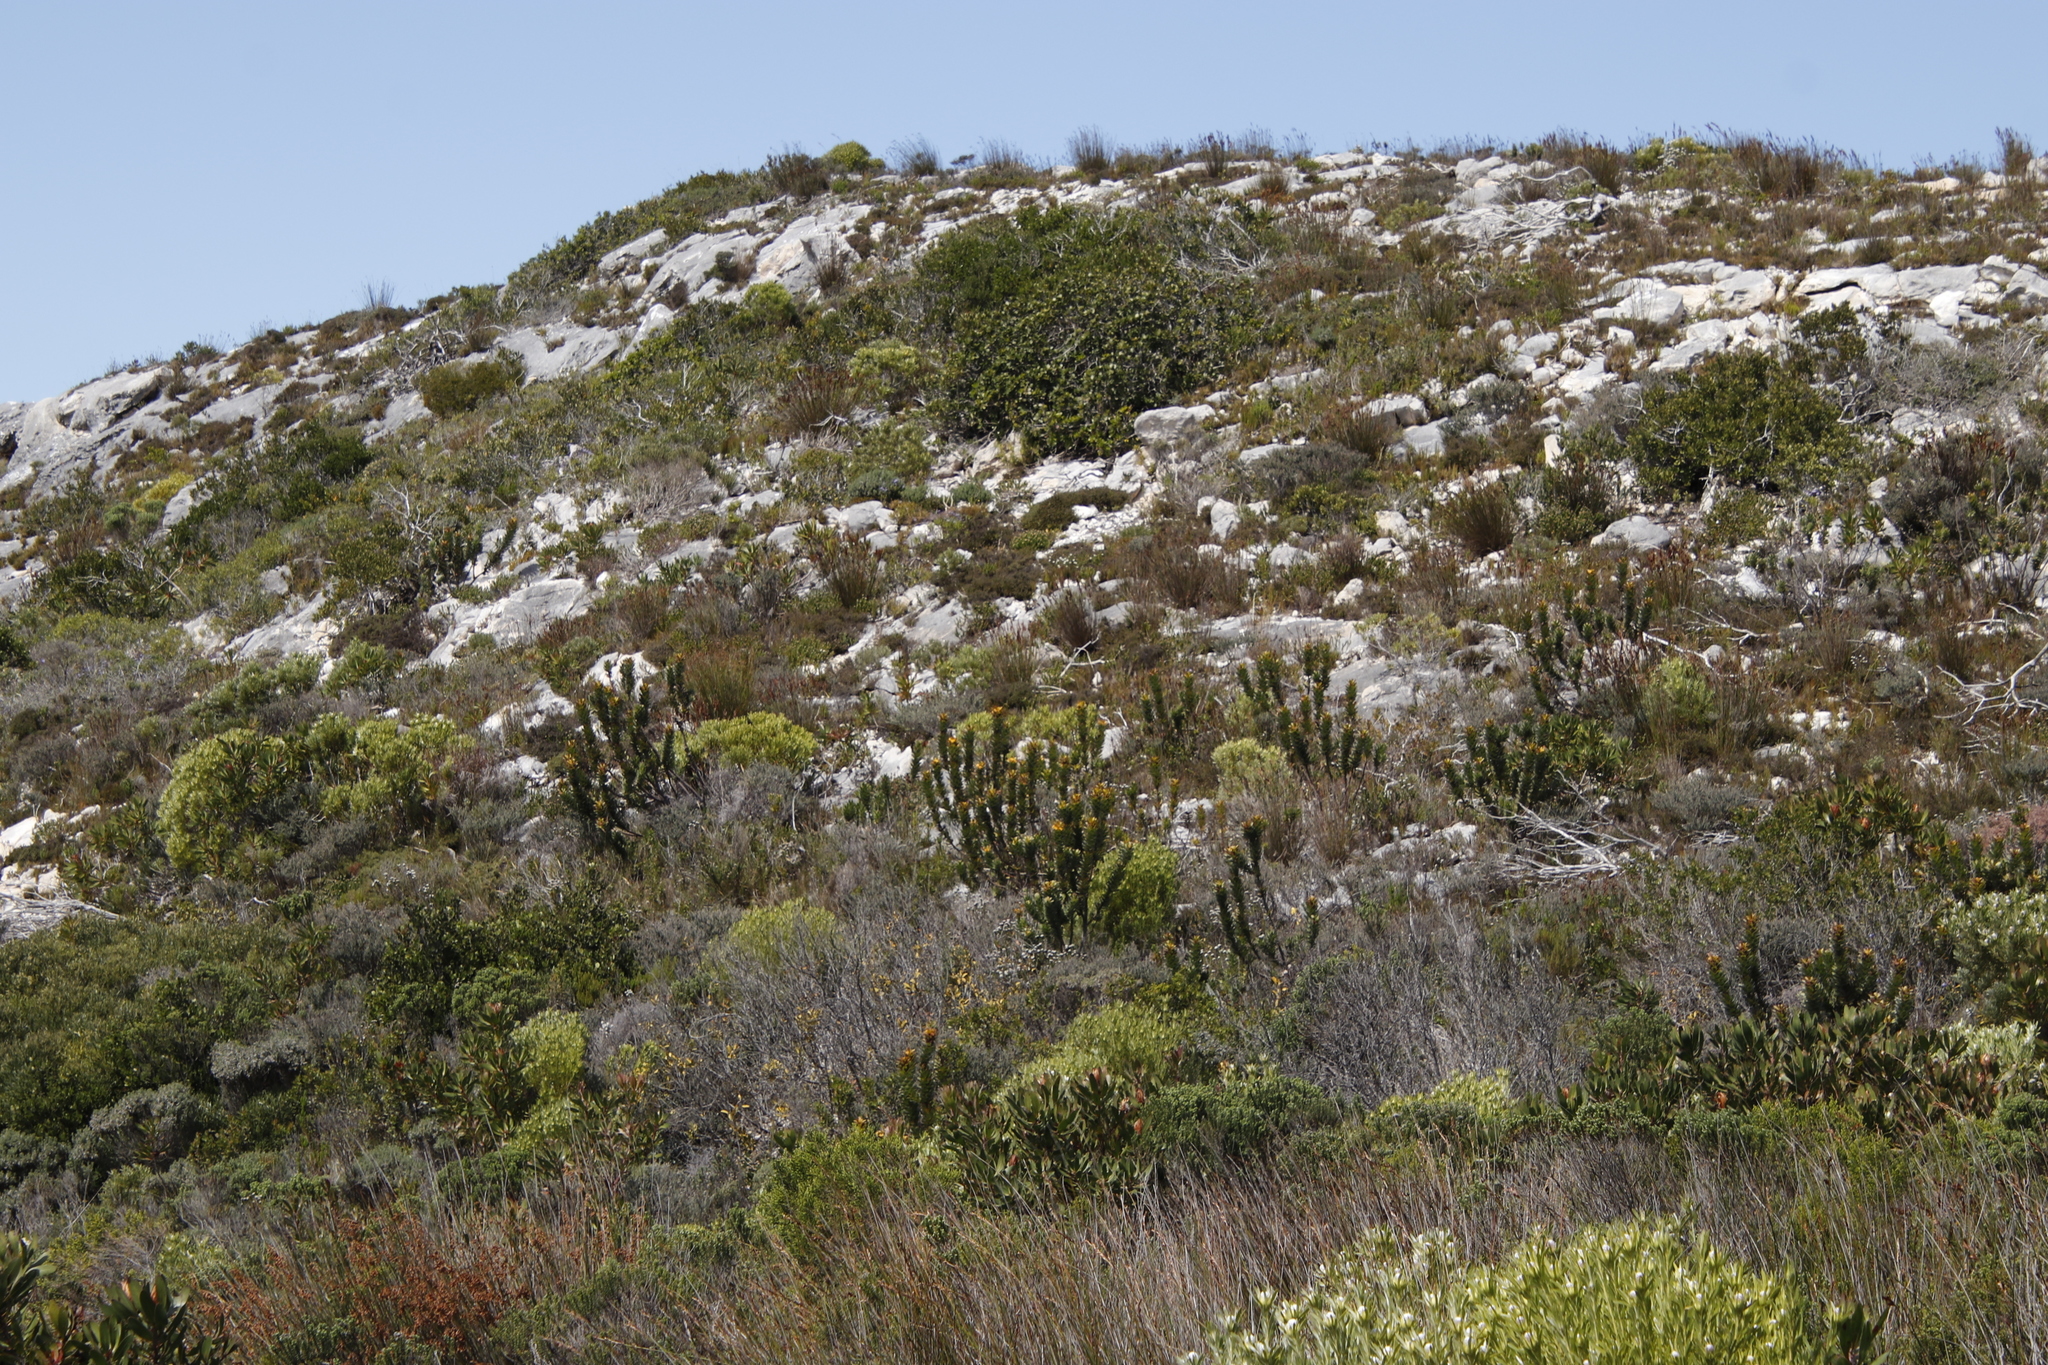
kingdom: Plantae
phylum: Tracheophyta
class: Magnoliopsida
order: Proteales
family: Proteaceae
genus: Mimetes
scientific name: Mimetes saxatilis
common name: Limestone pagoda
